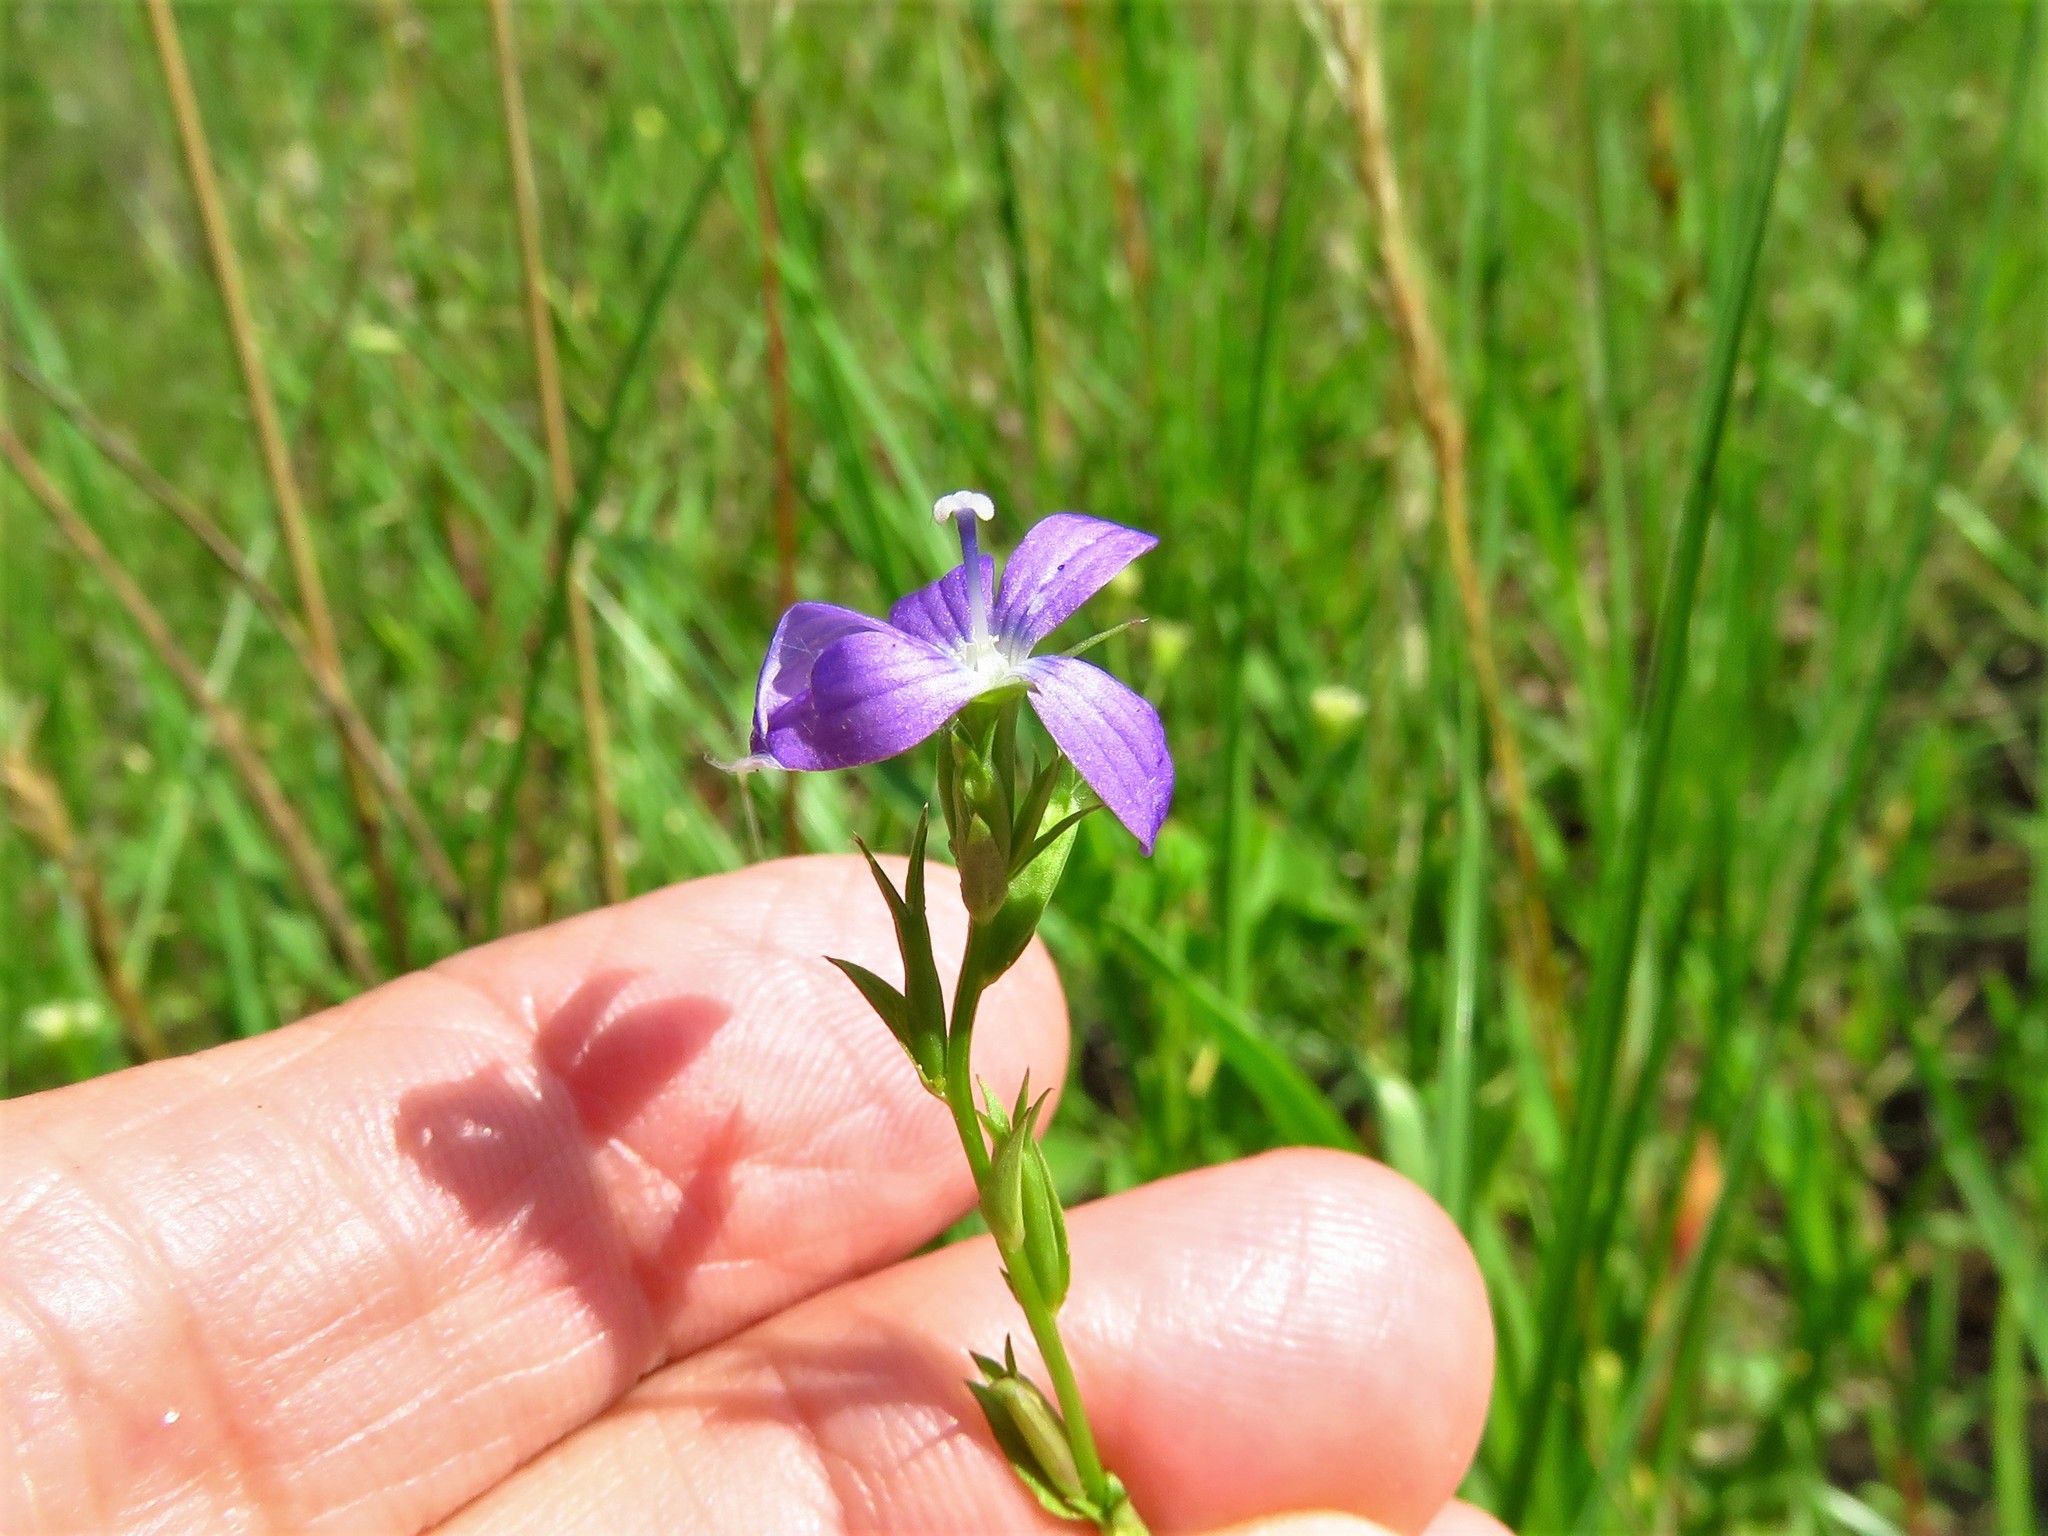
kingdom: Plantae
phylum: Tracheophyta
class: Magnoliopsida
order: Asterales
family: Campanulaceae
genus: Triodanis
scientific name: Triodanis biflora
